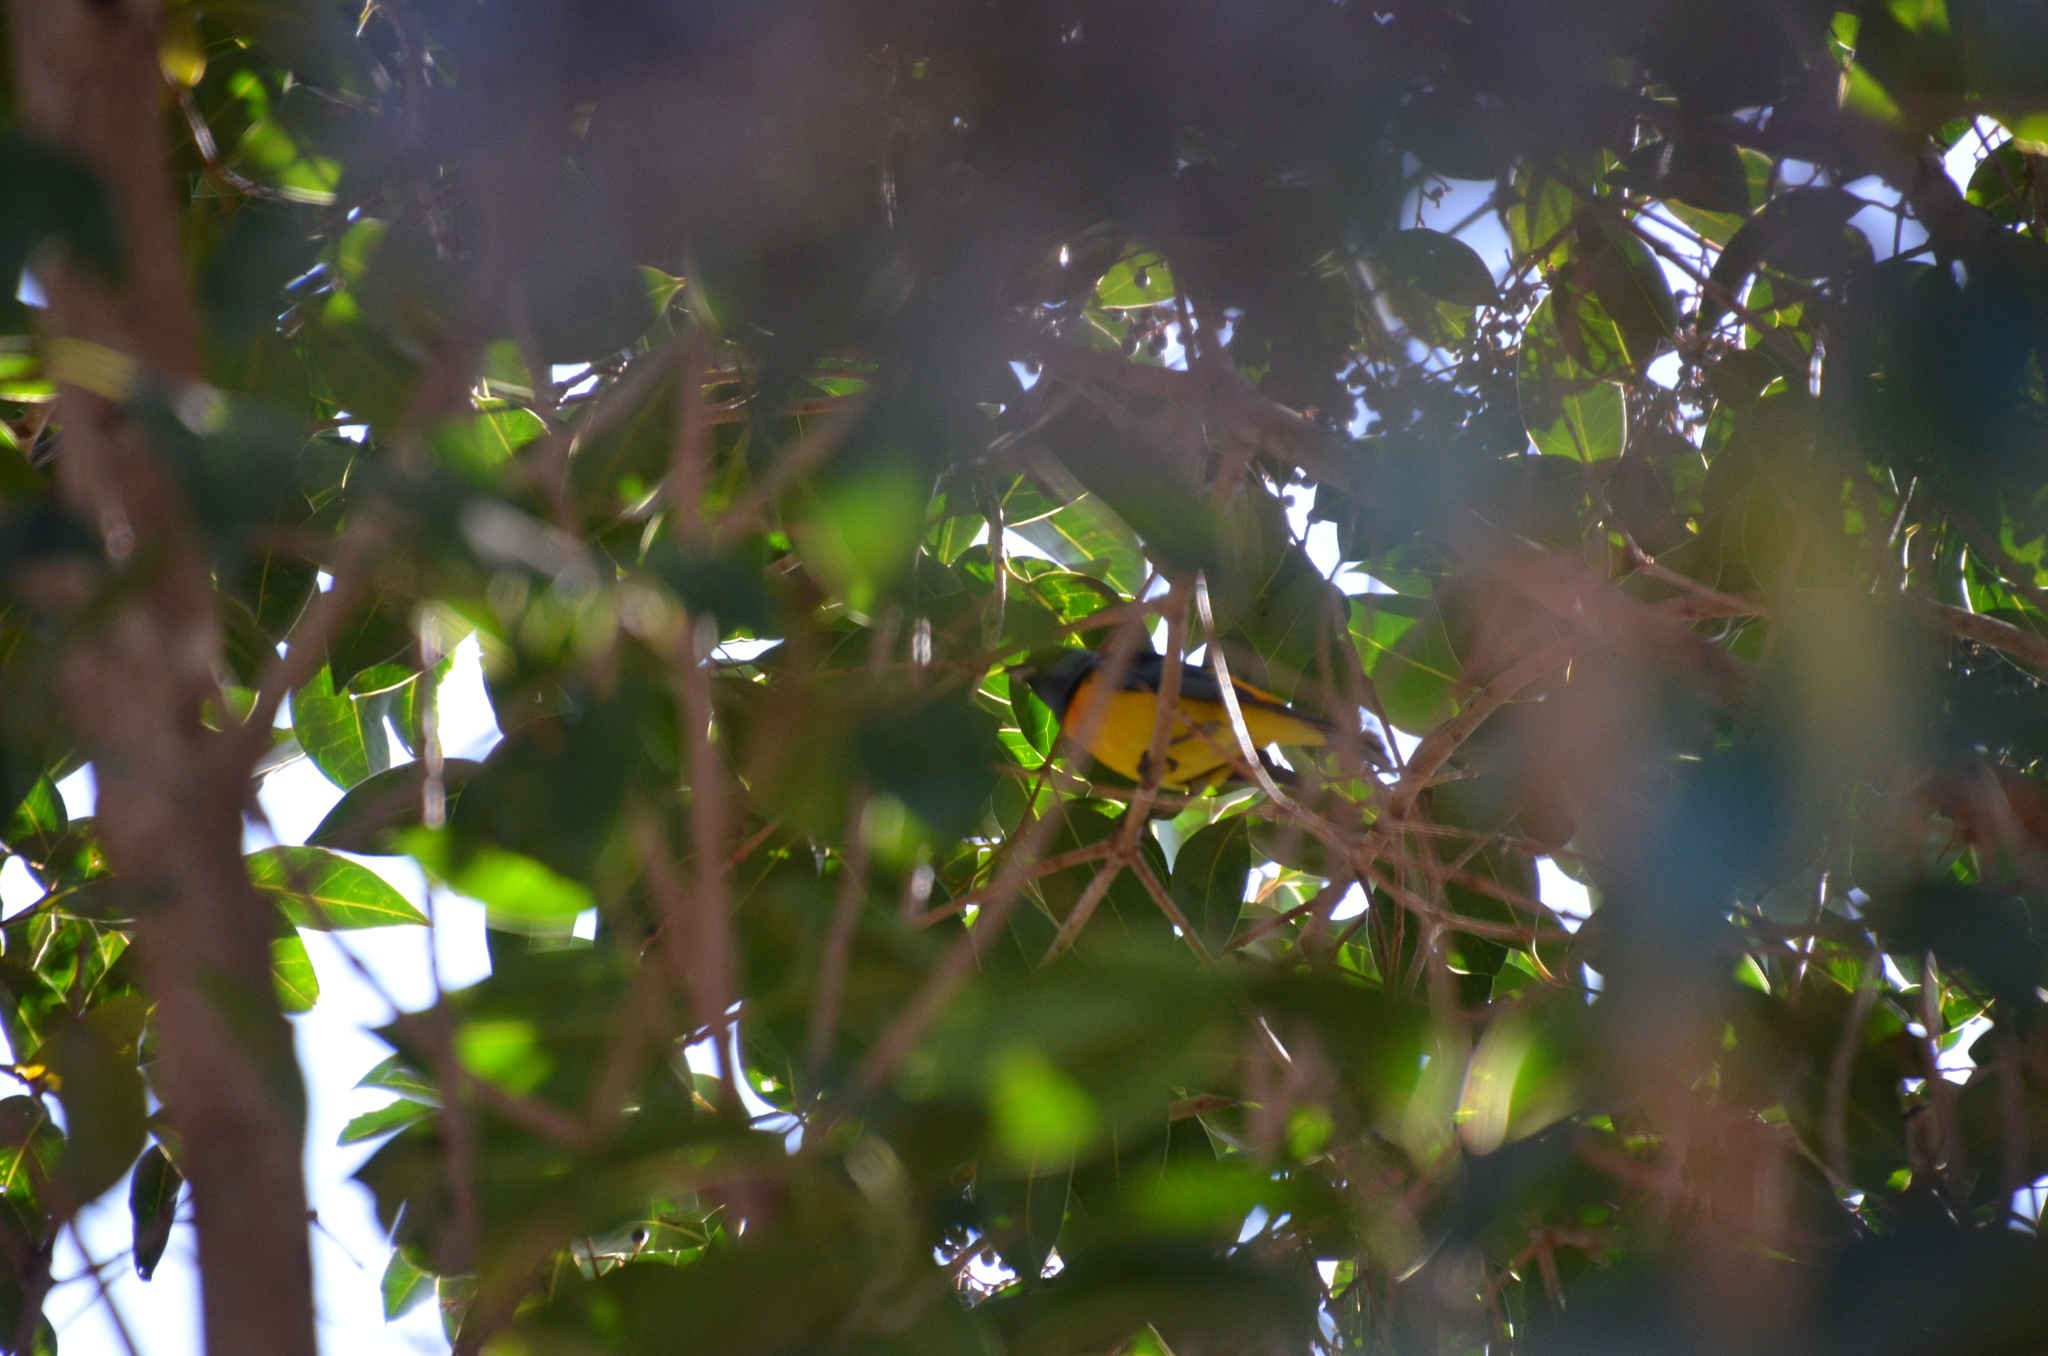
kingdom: Animalia
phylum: Chordata
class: Aves
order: Passeriformes
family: Thraupidae
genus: Rauenia
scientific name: Rauenia bonariensis
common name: Blue-and-yellow tanager
